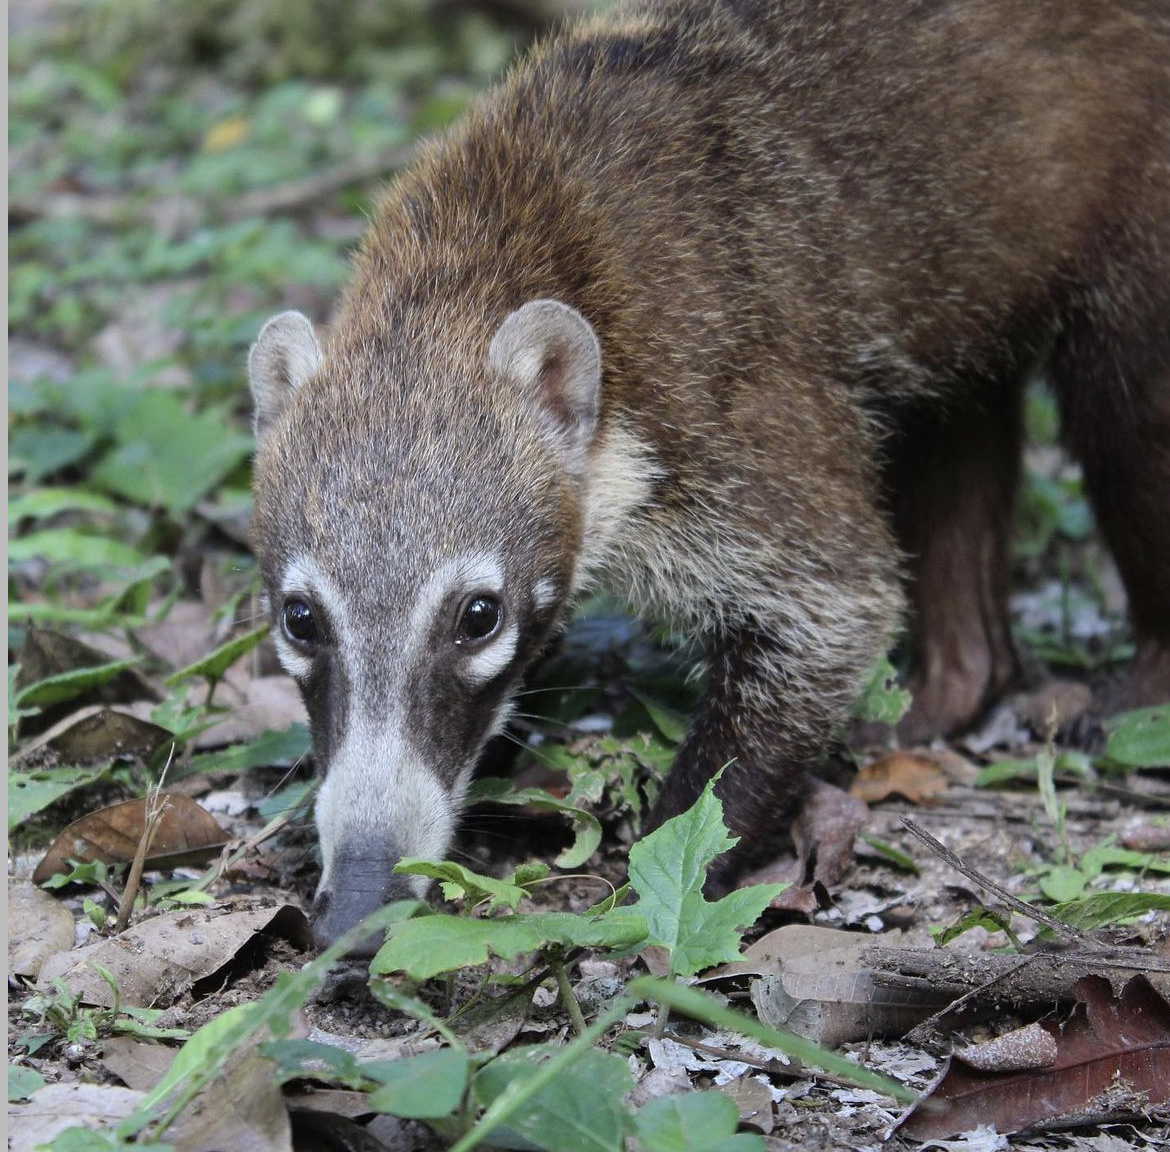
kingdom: Animalia
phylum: Chordata
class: Mammalia
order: Carnivora
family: Procyonidae
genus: Nasua
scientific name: Nasua narica
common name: White-nosed coati
